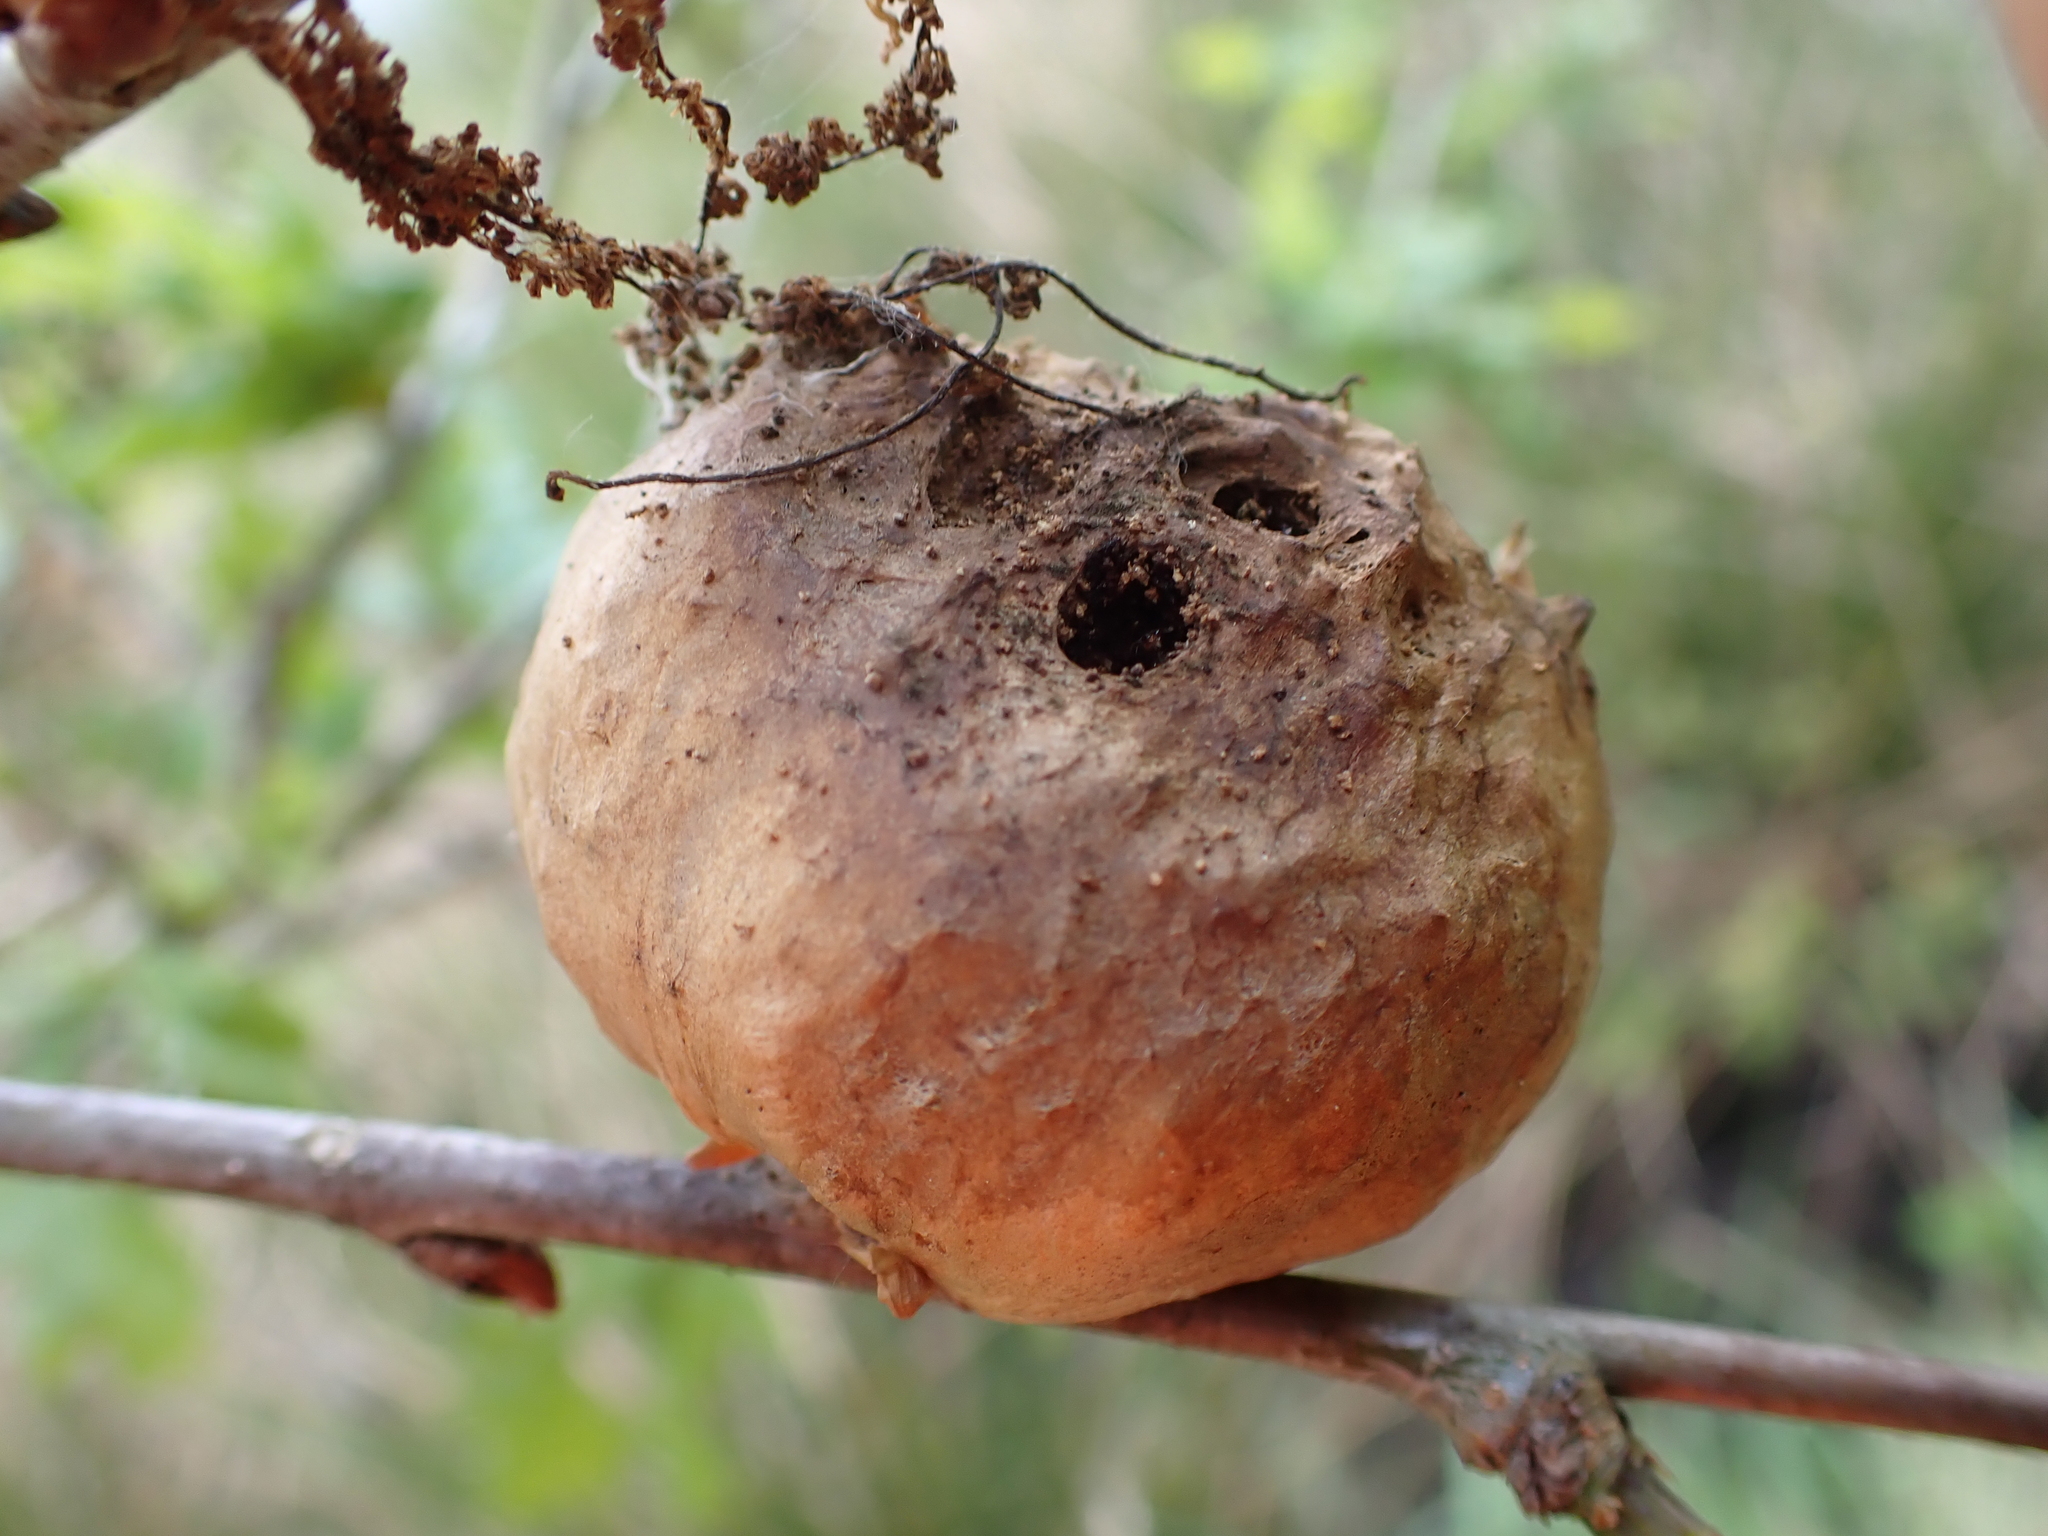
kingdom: Animalia
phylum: Arthropoda
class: Insecta
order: Hymenoptera
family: Cynipidae
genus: Biorhiza
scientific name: Biorhiza pallida
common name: Oak apple
